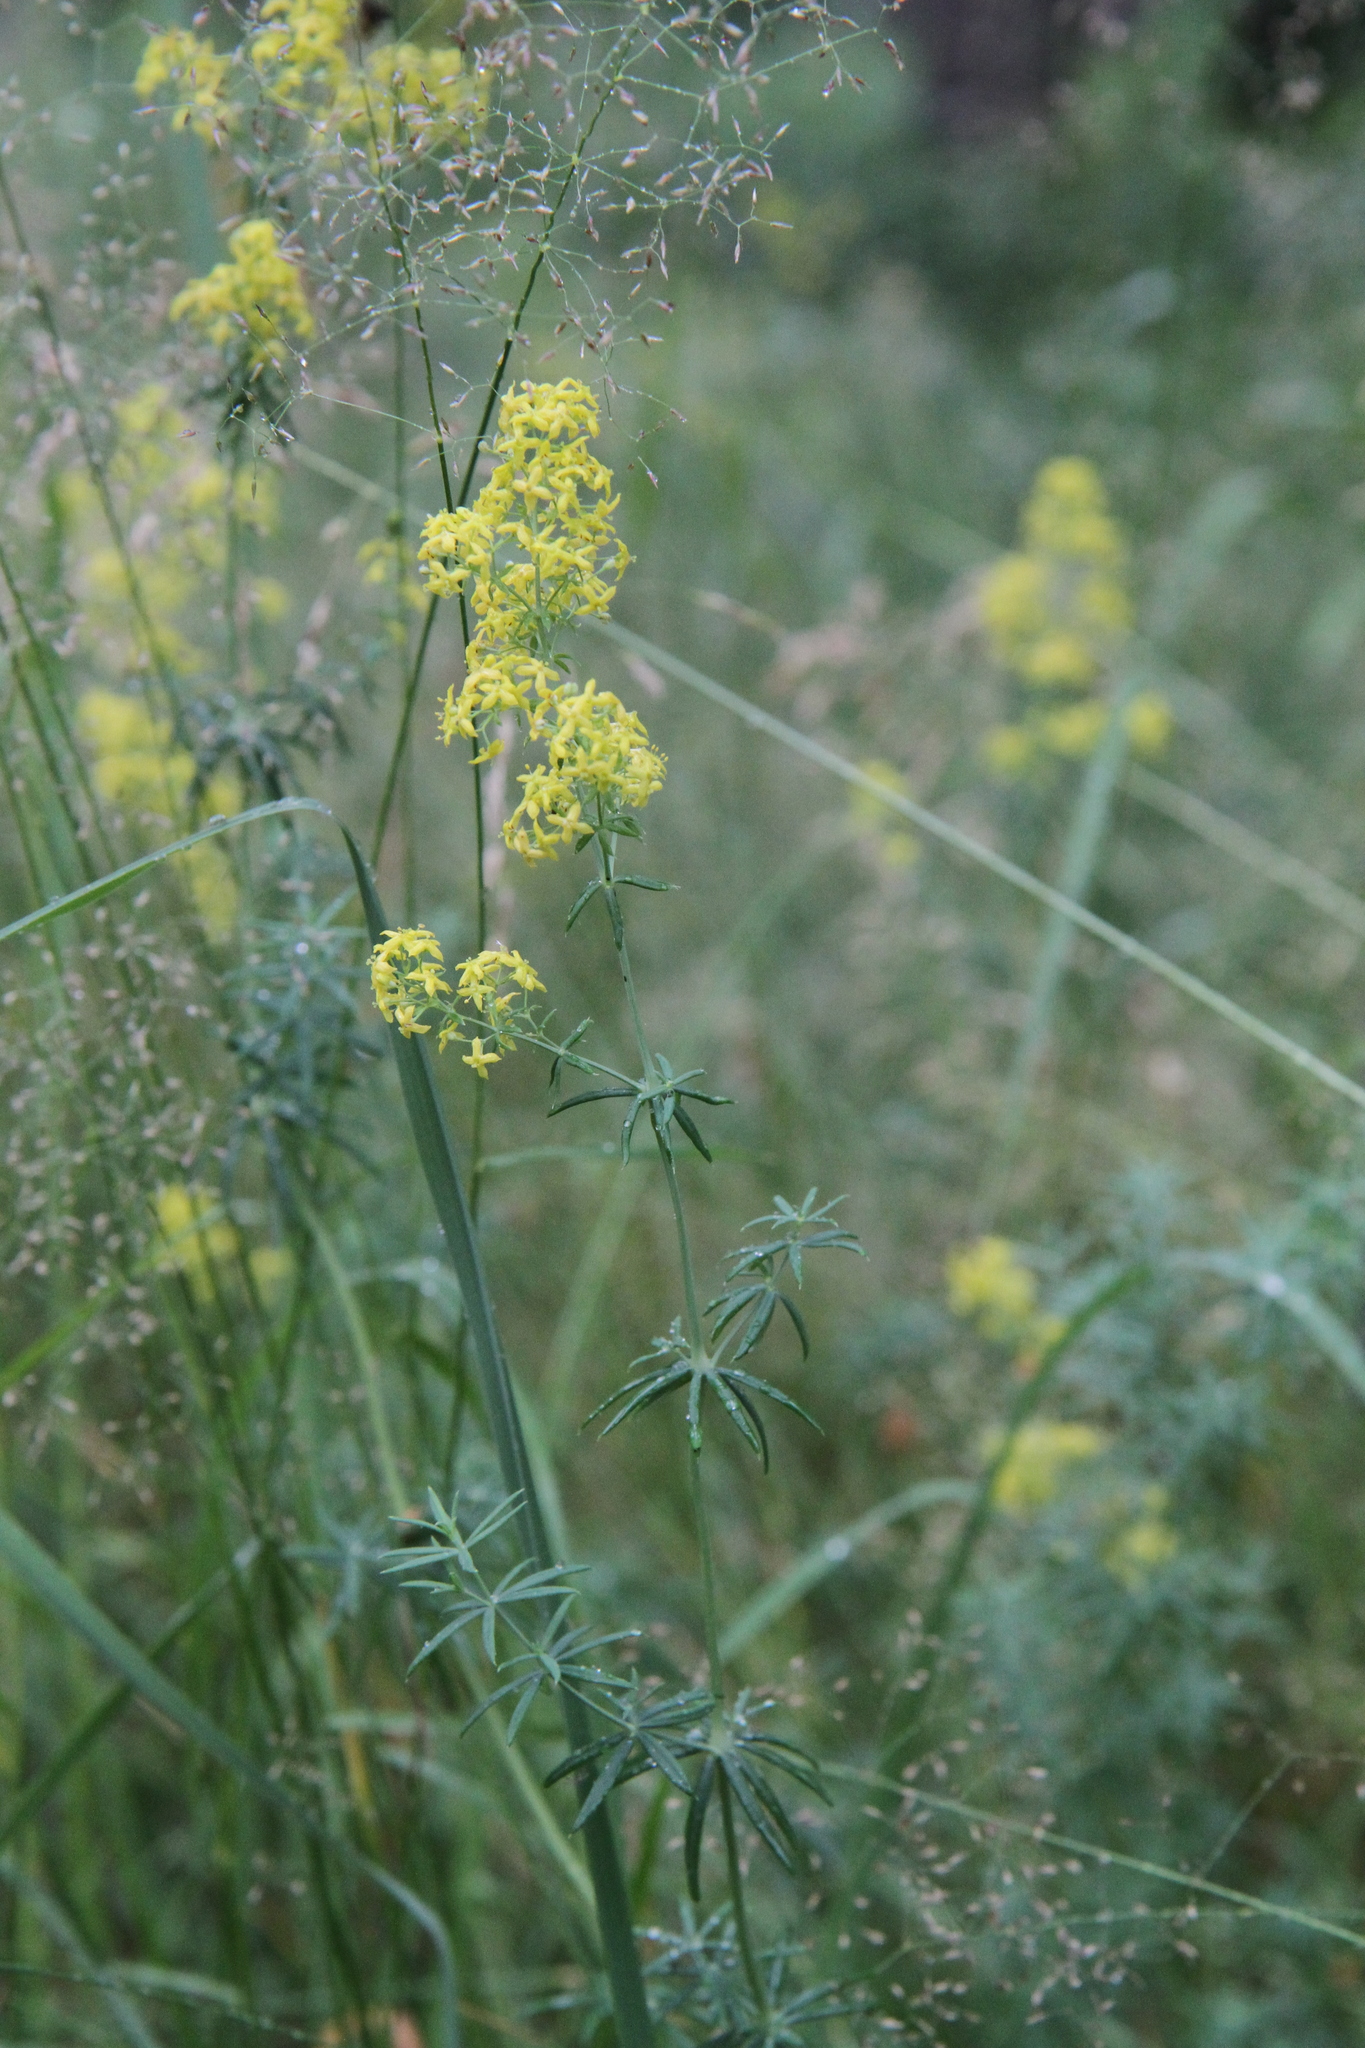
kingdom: Plantae
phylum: Tracheophyta
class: Magnoliopsida
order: Gentianales
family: Rubiaceae
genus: Galium
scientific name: Galium verum
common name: Lady's bedstraw
